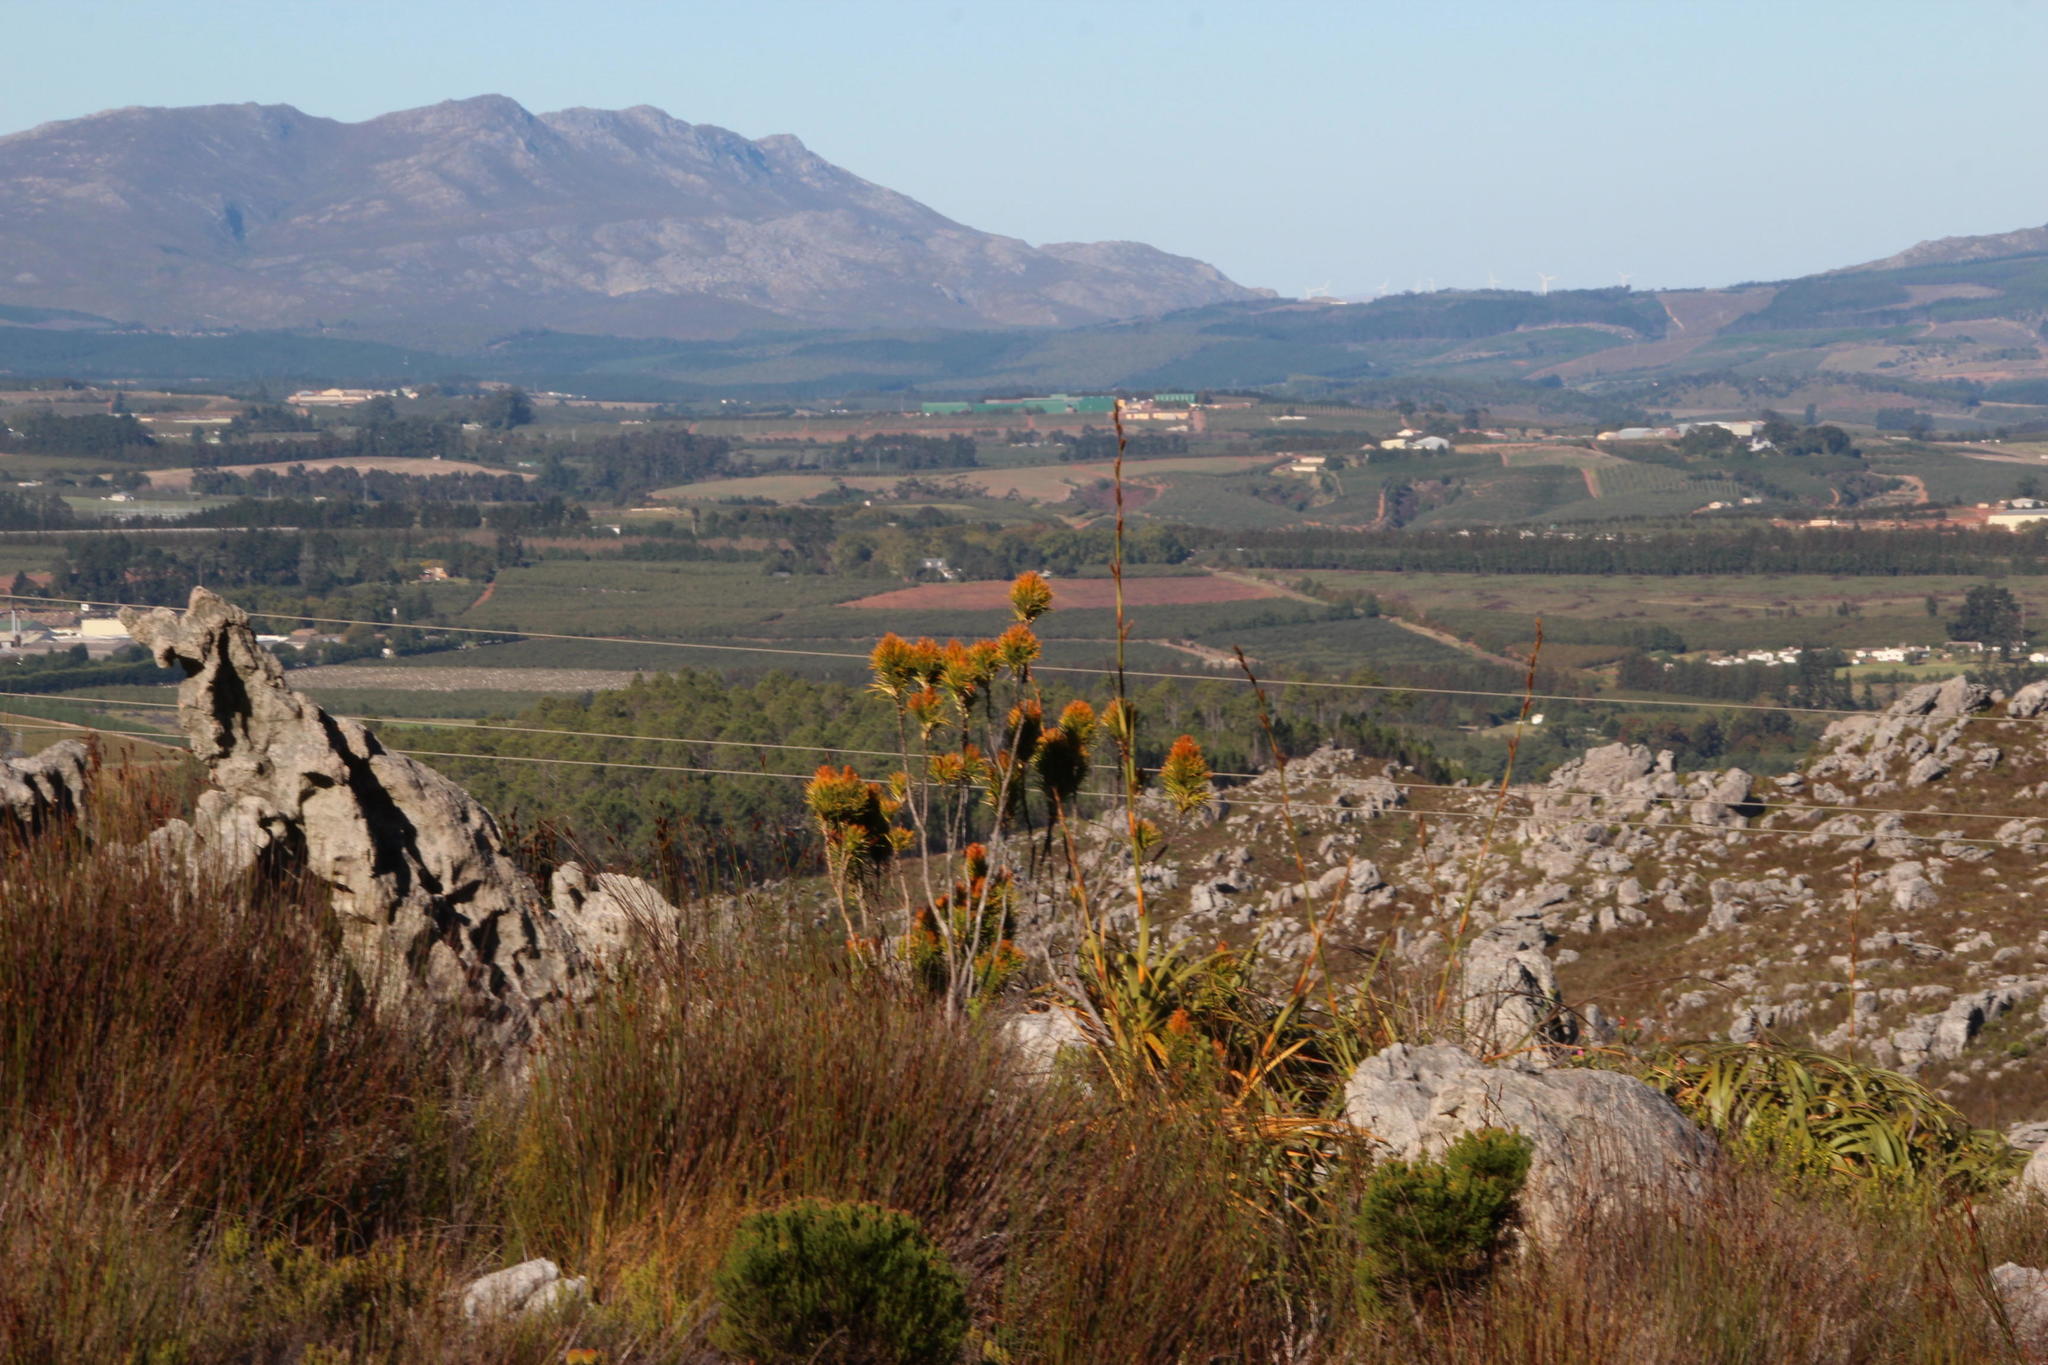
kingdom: Plantae
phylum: Tracheophyta
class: Magnoliopsida
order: Lamiales
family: Stilbaceae
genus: Retzia
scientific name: Retzia capensis
